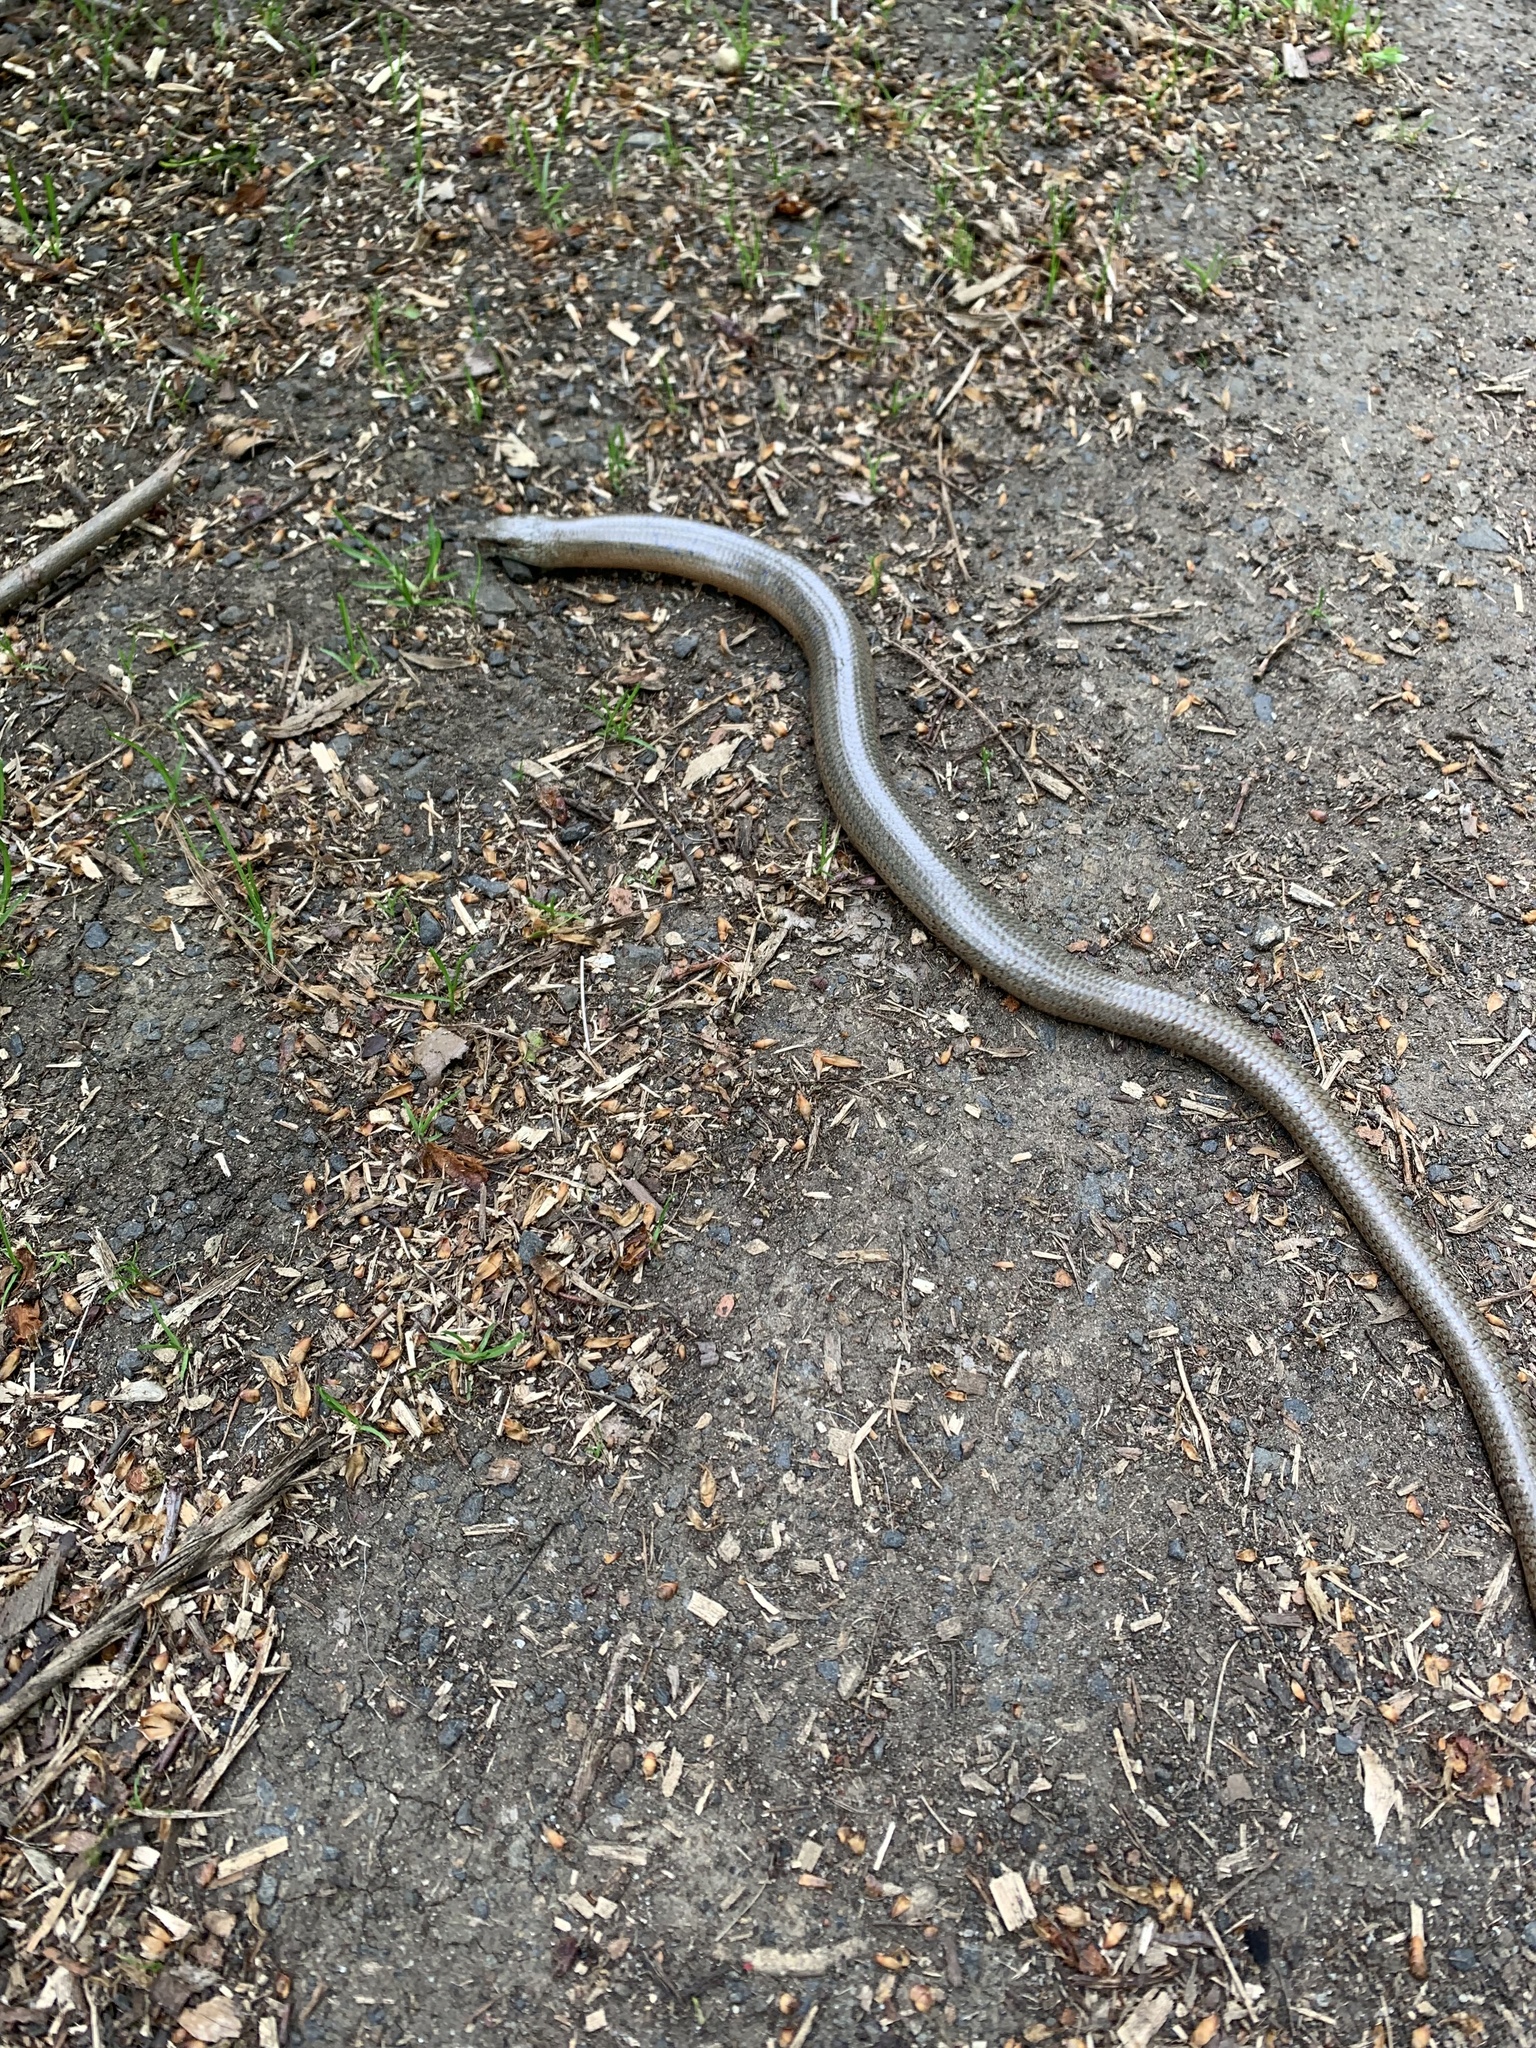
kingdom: Animalia
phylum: Chordata
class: Squamata
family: Anguidae
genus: Anguis
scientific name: Anguis fragilis
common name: Slow worm
